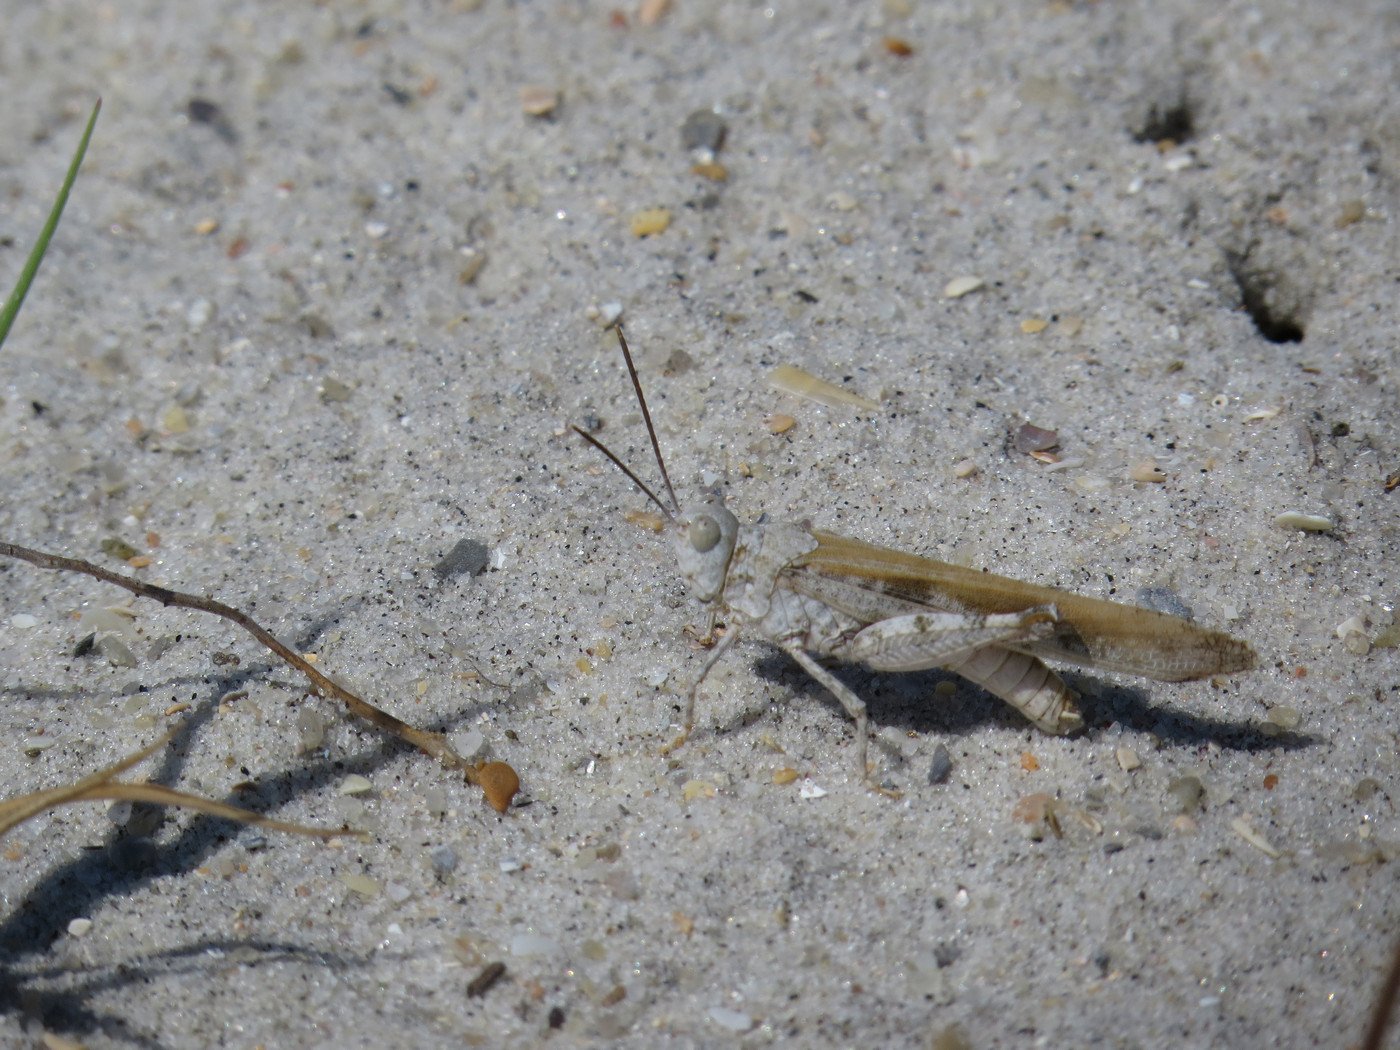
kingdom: Animalia
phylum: Arthropoda
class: Insecta
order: Orthoptera
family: Acrididae
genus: Trimerotropis
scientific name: Trimerotropis maritima
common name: Seaside locust
